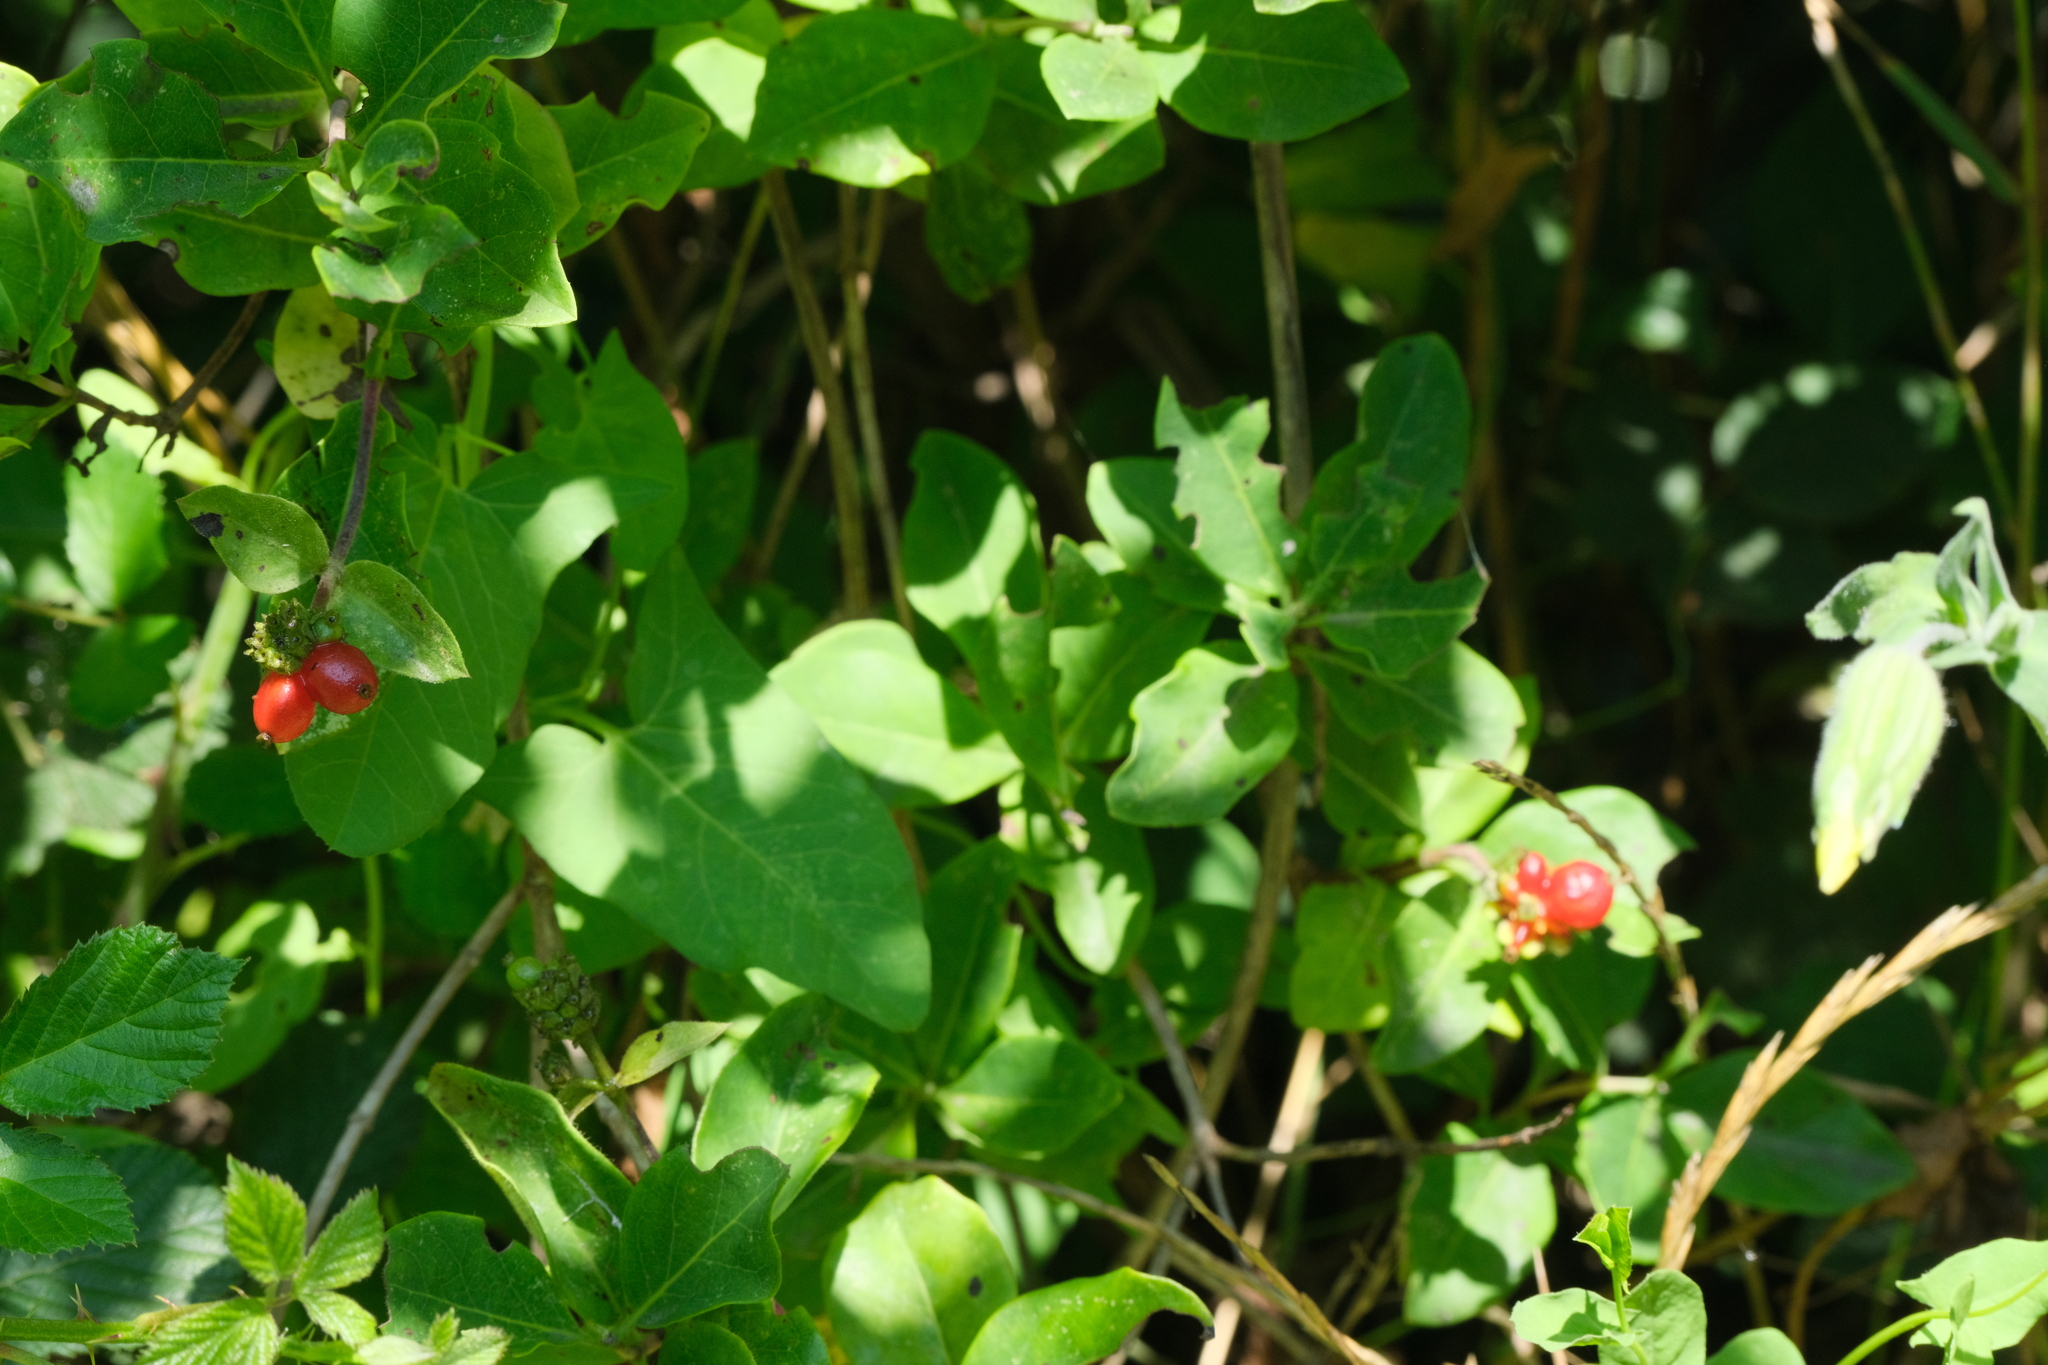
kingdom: Plantae
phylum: Tracheophyta
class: Magnoliopsida
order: Dipsacales
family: Caprifoliaceae
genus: Lonicera
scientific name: Lonicera periclymenum
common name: European honeysuckle
